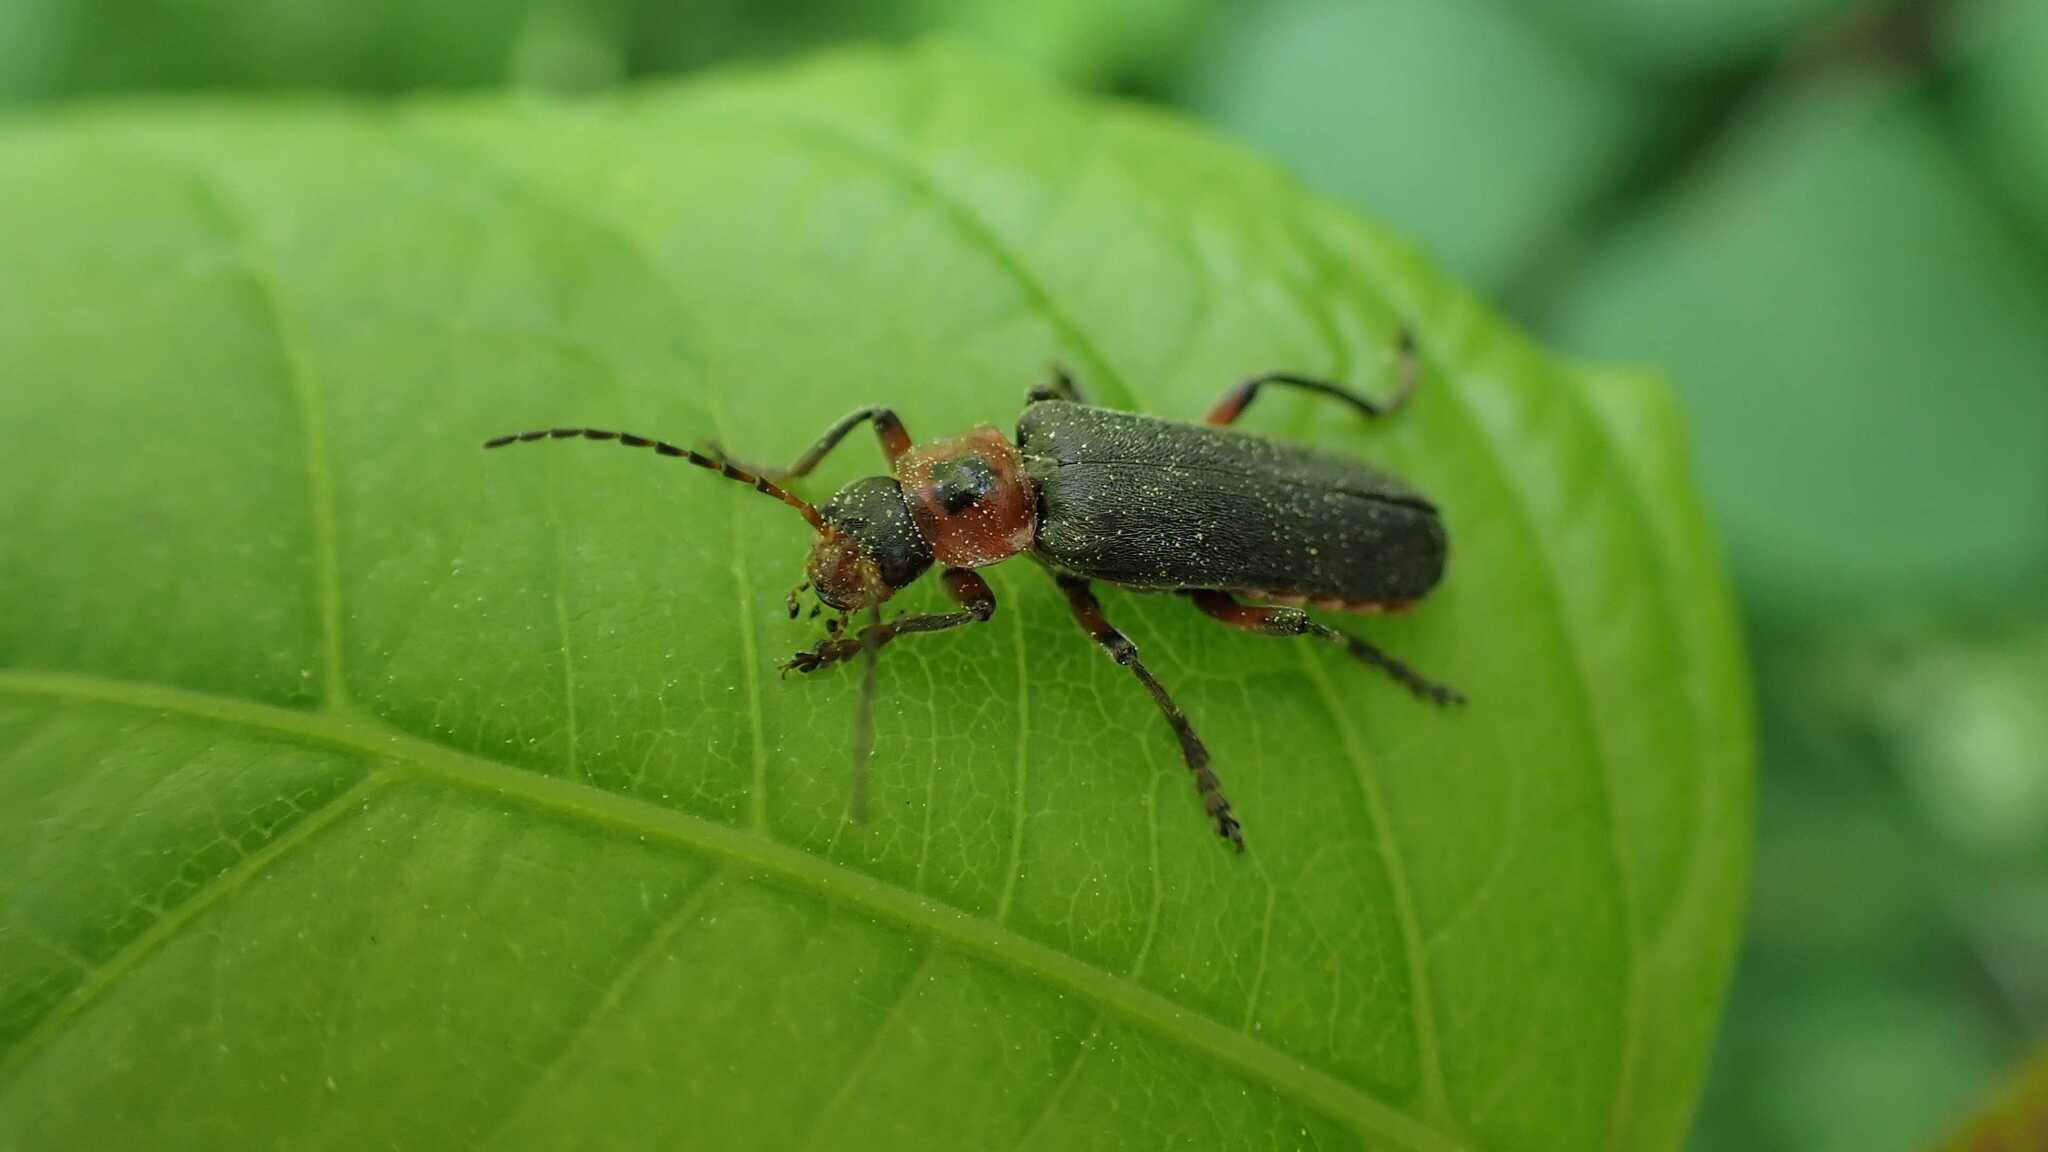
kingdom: Animalia
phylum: Arthropoda
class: Insecta
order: Coleoptera
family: Cantharidae
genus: Cantharis
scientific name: Cantharis rustica
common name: Soldier beetle
